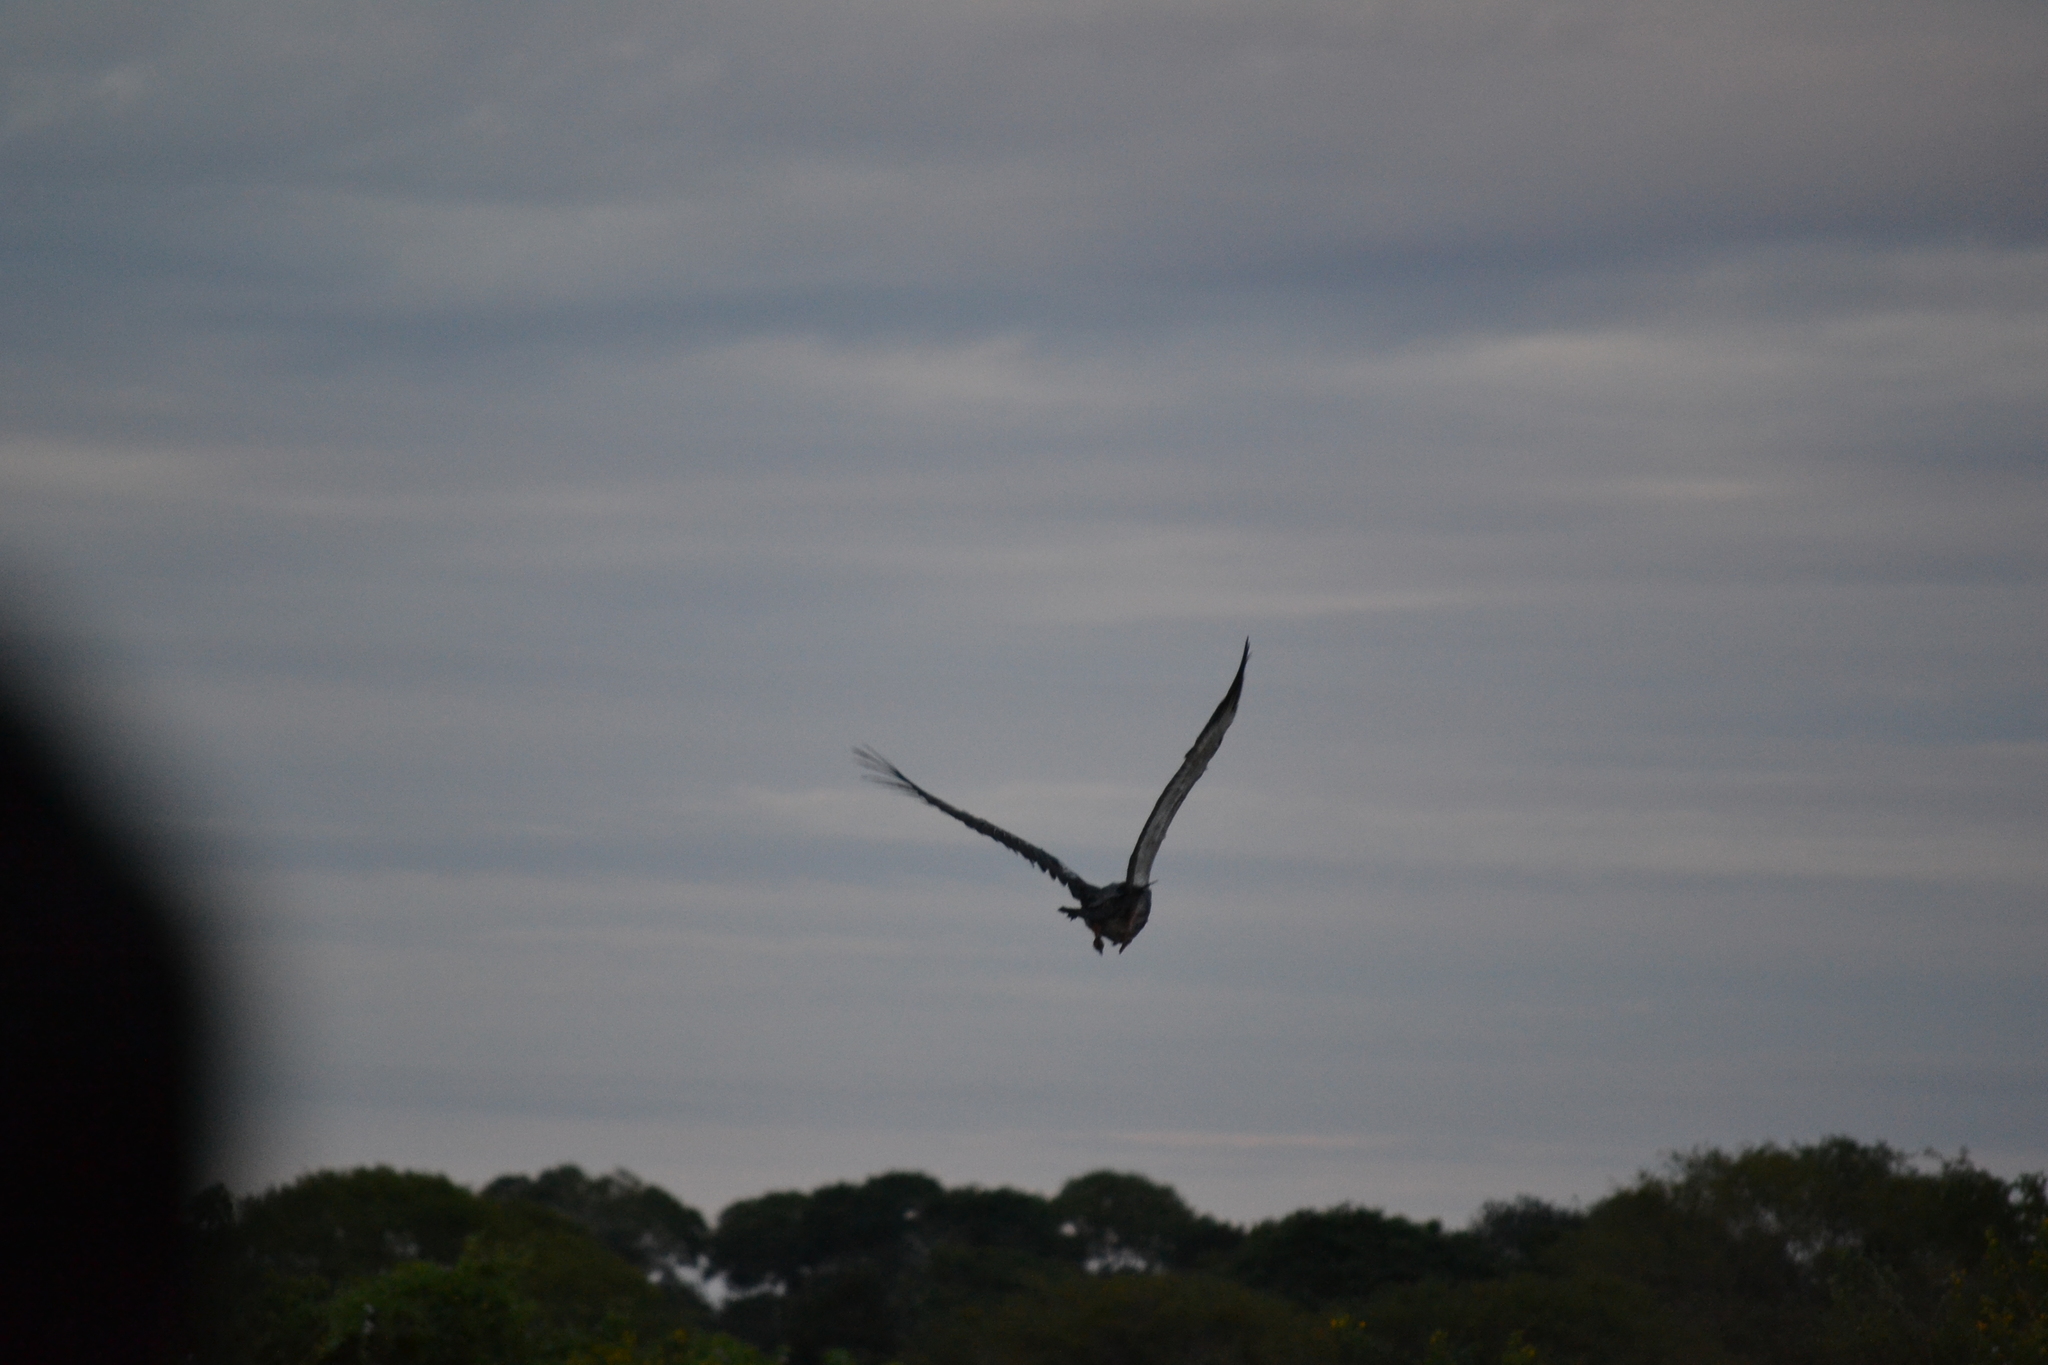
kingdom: Animalia
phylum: Chordata
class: Aves
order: Anseriformes
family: Anhimidae
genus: Chauna
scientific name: Chauna torquata
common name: Southern screamer
